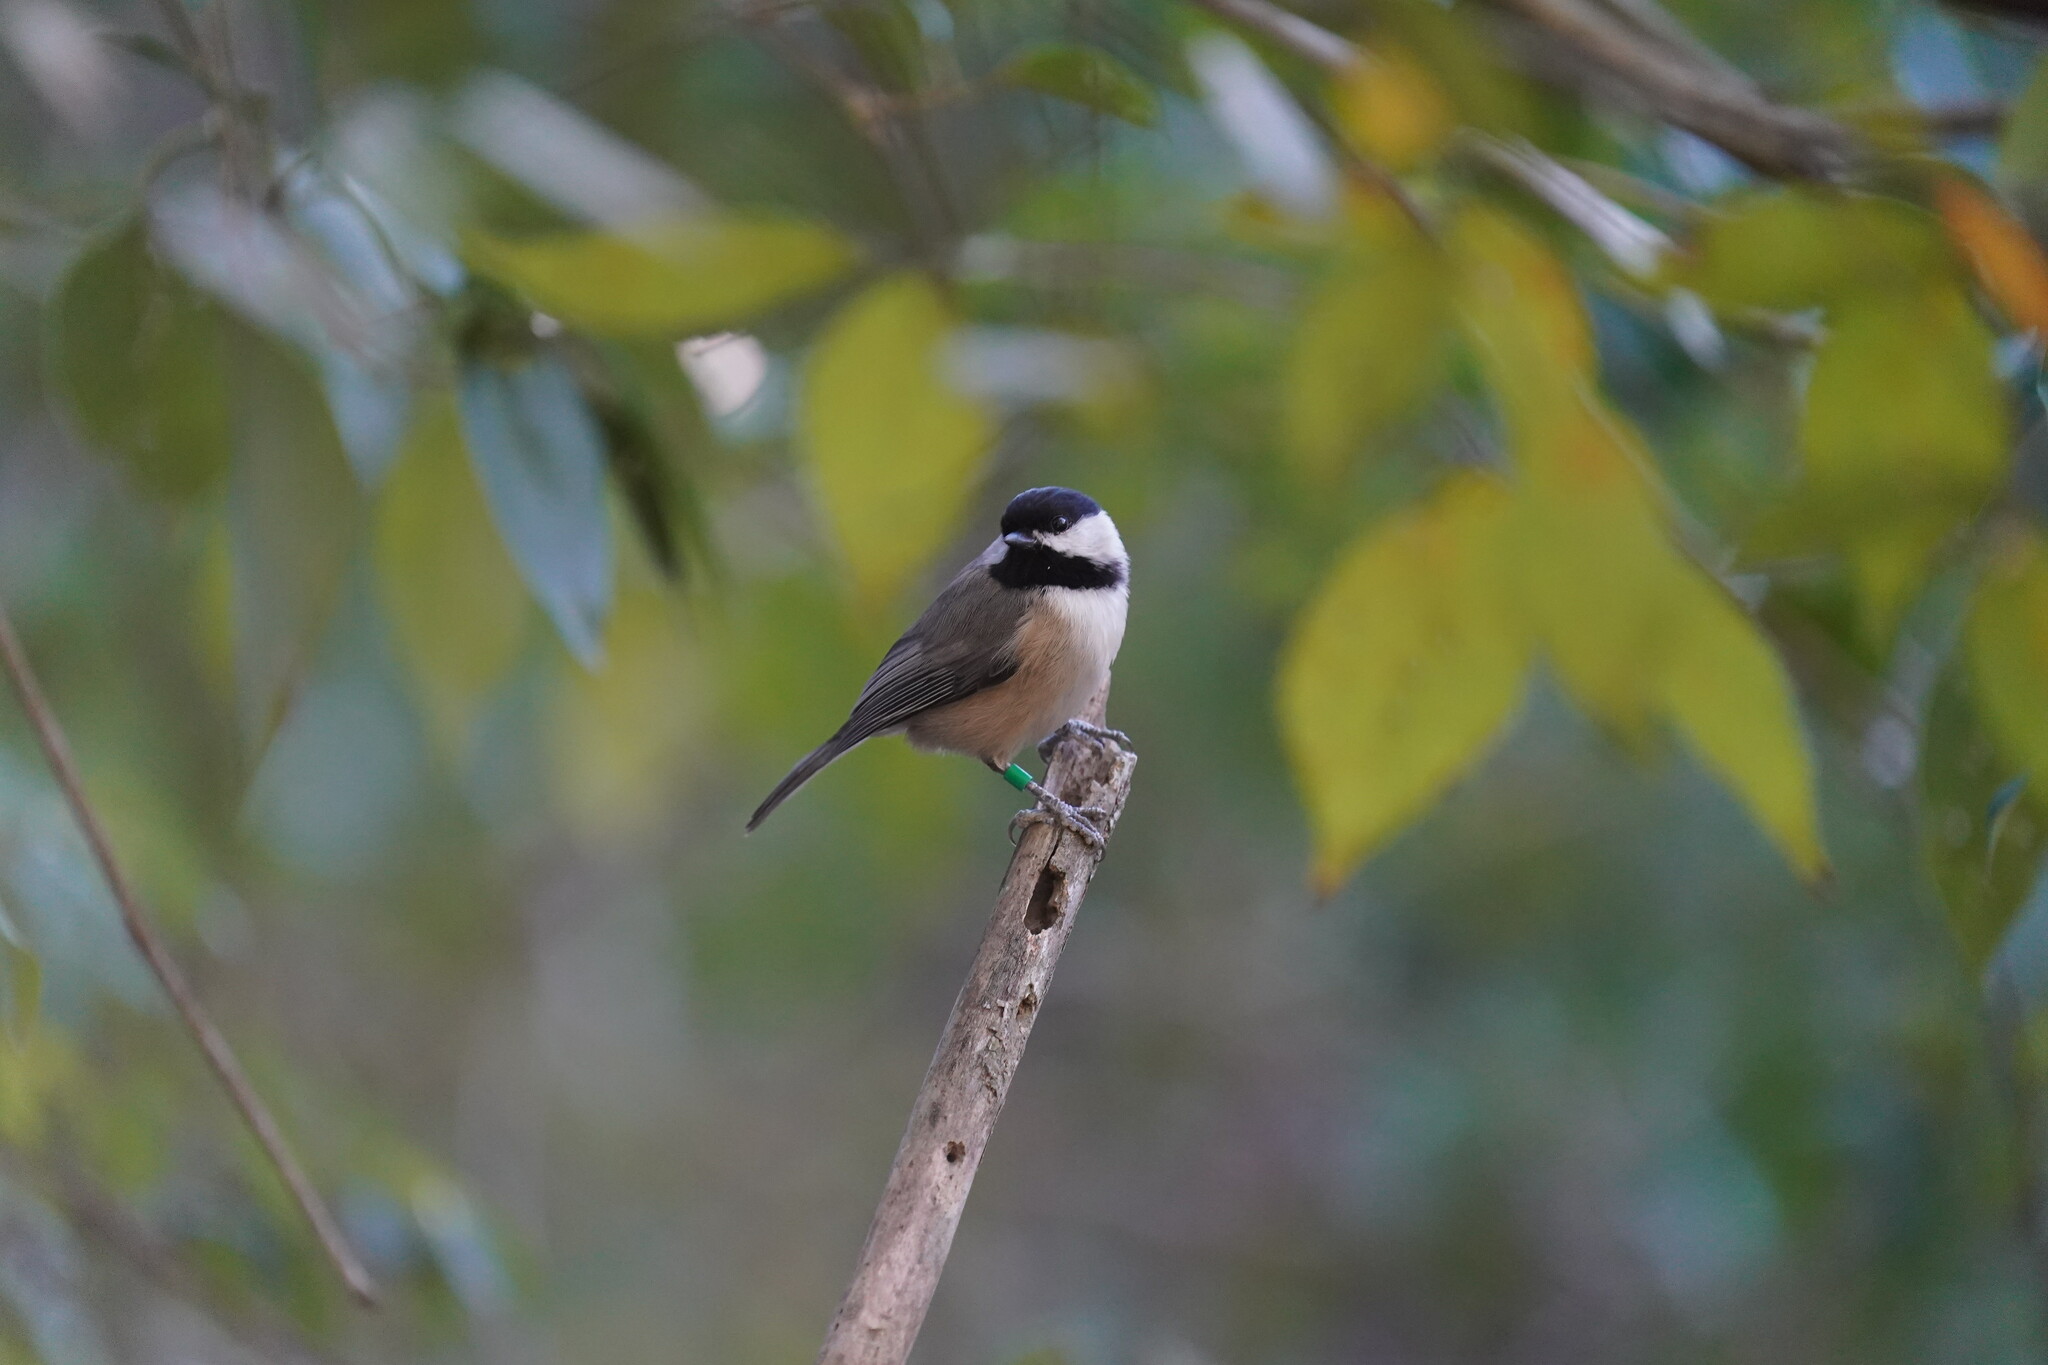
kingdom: Animalia
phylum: Chordata
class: Aves
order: Passeriformes
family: Paridae
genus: Poecile
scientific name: Poecile carolinensis
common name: Carolina chickadee
